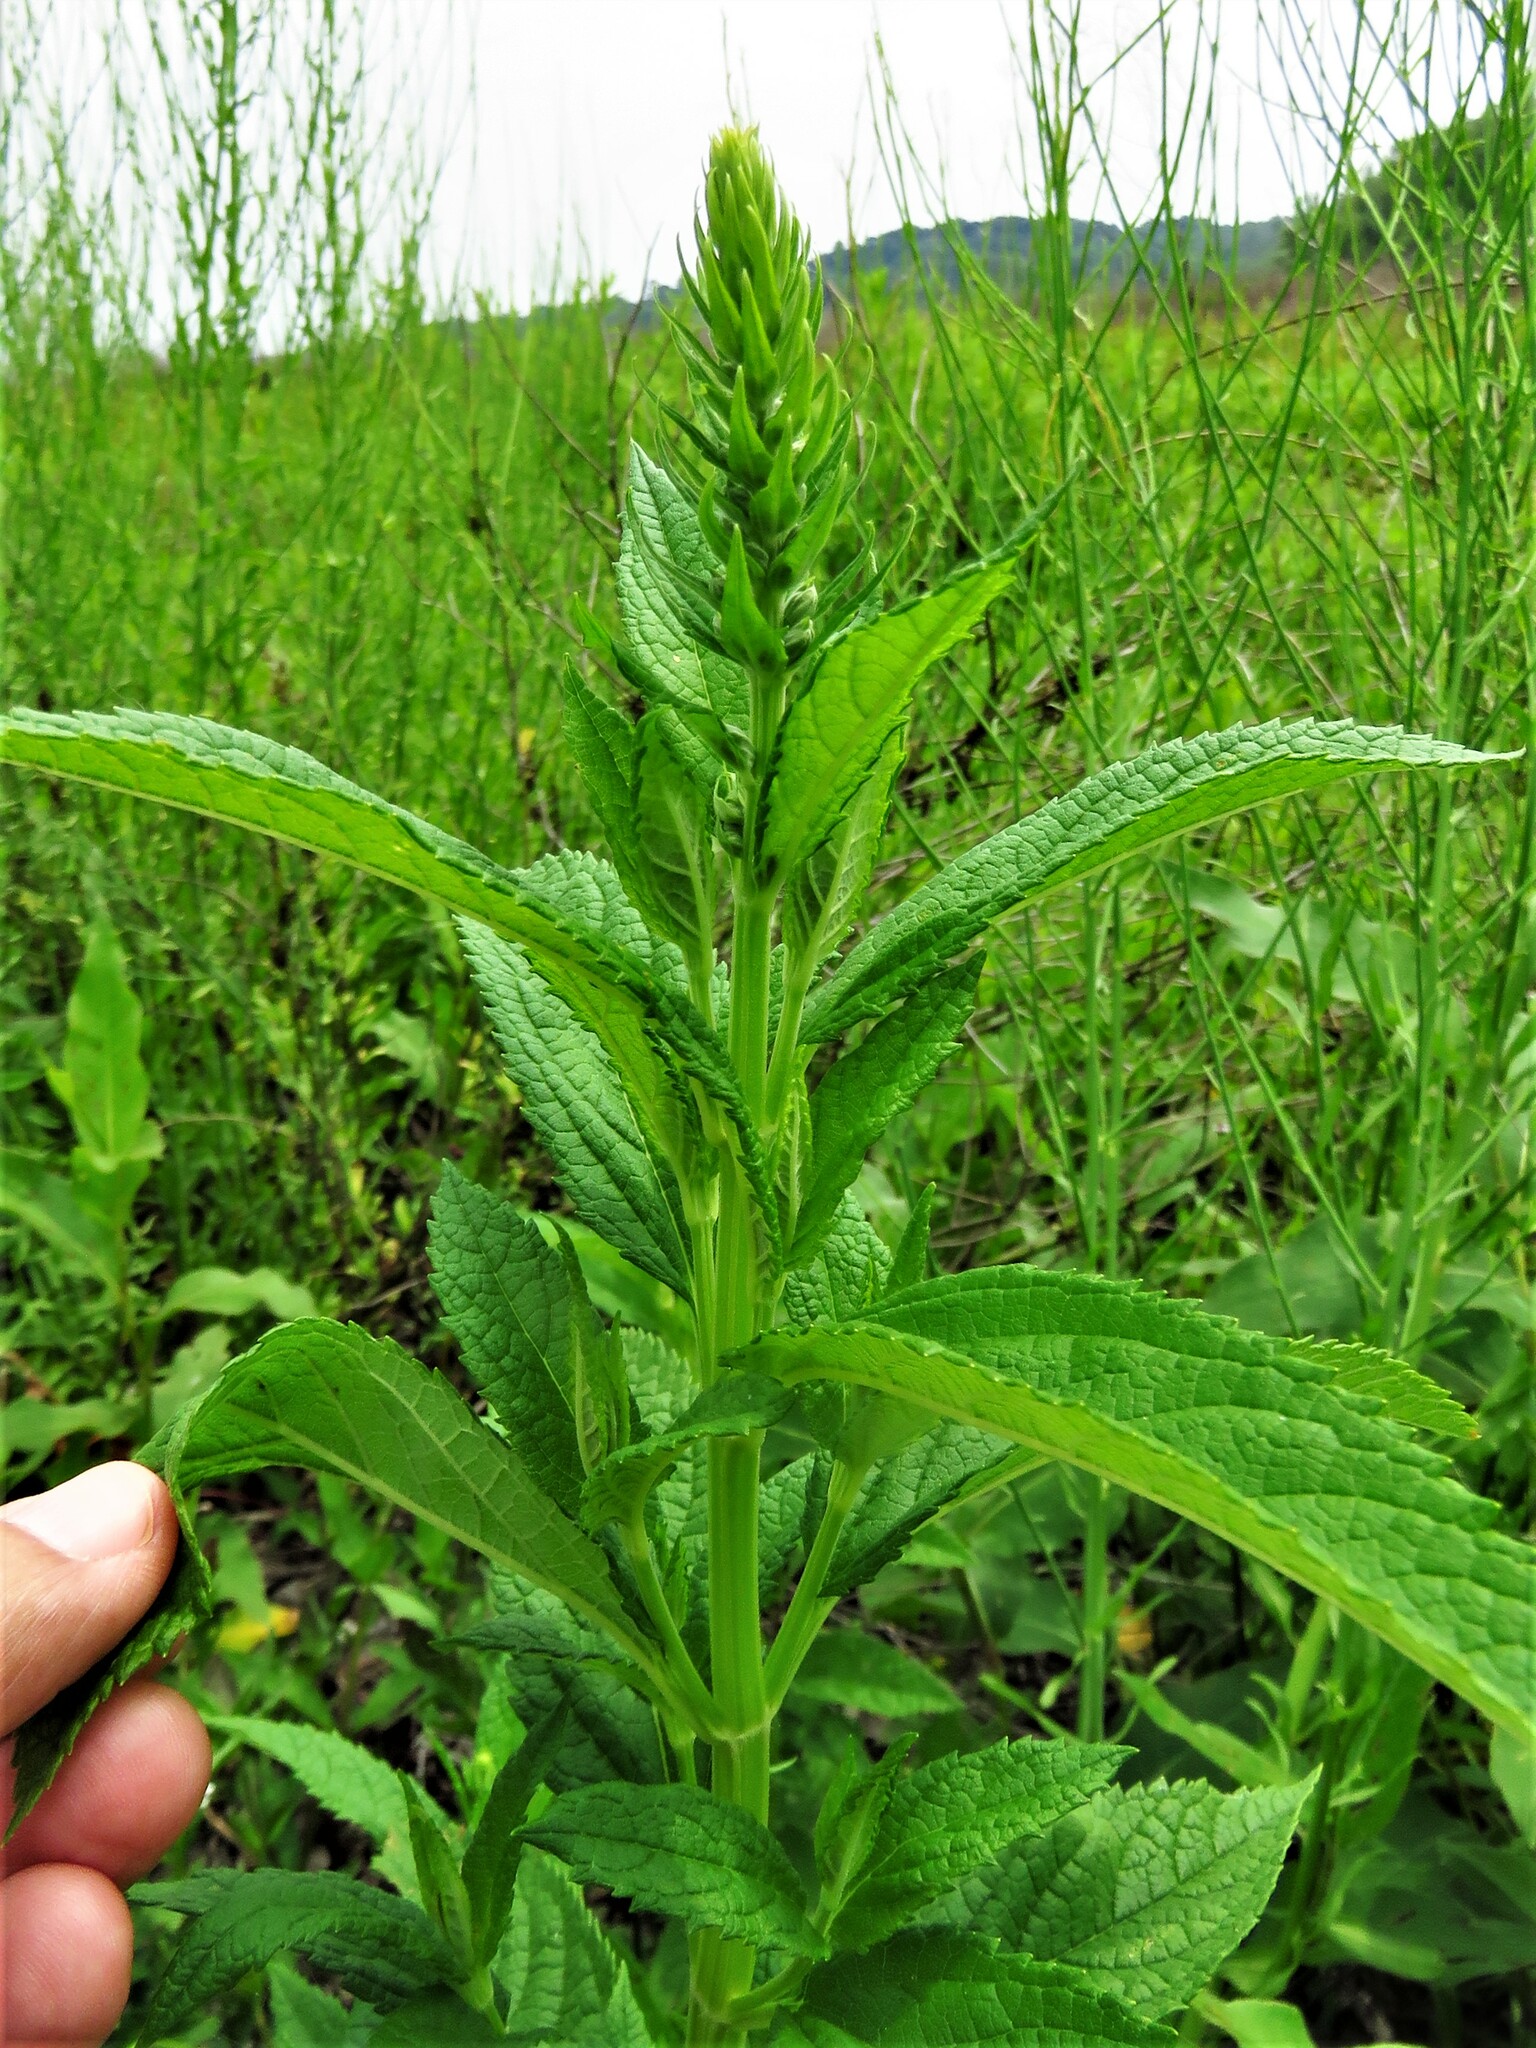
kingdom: Plantae
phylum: Tracheophyta
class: Magnoliopsida
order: Lamiales
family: Lamiaceae
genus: Teucrium
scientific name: Teucrium canadense
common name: American germander
